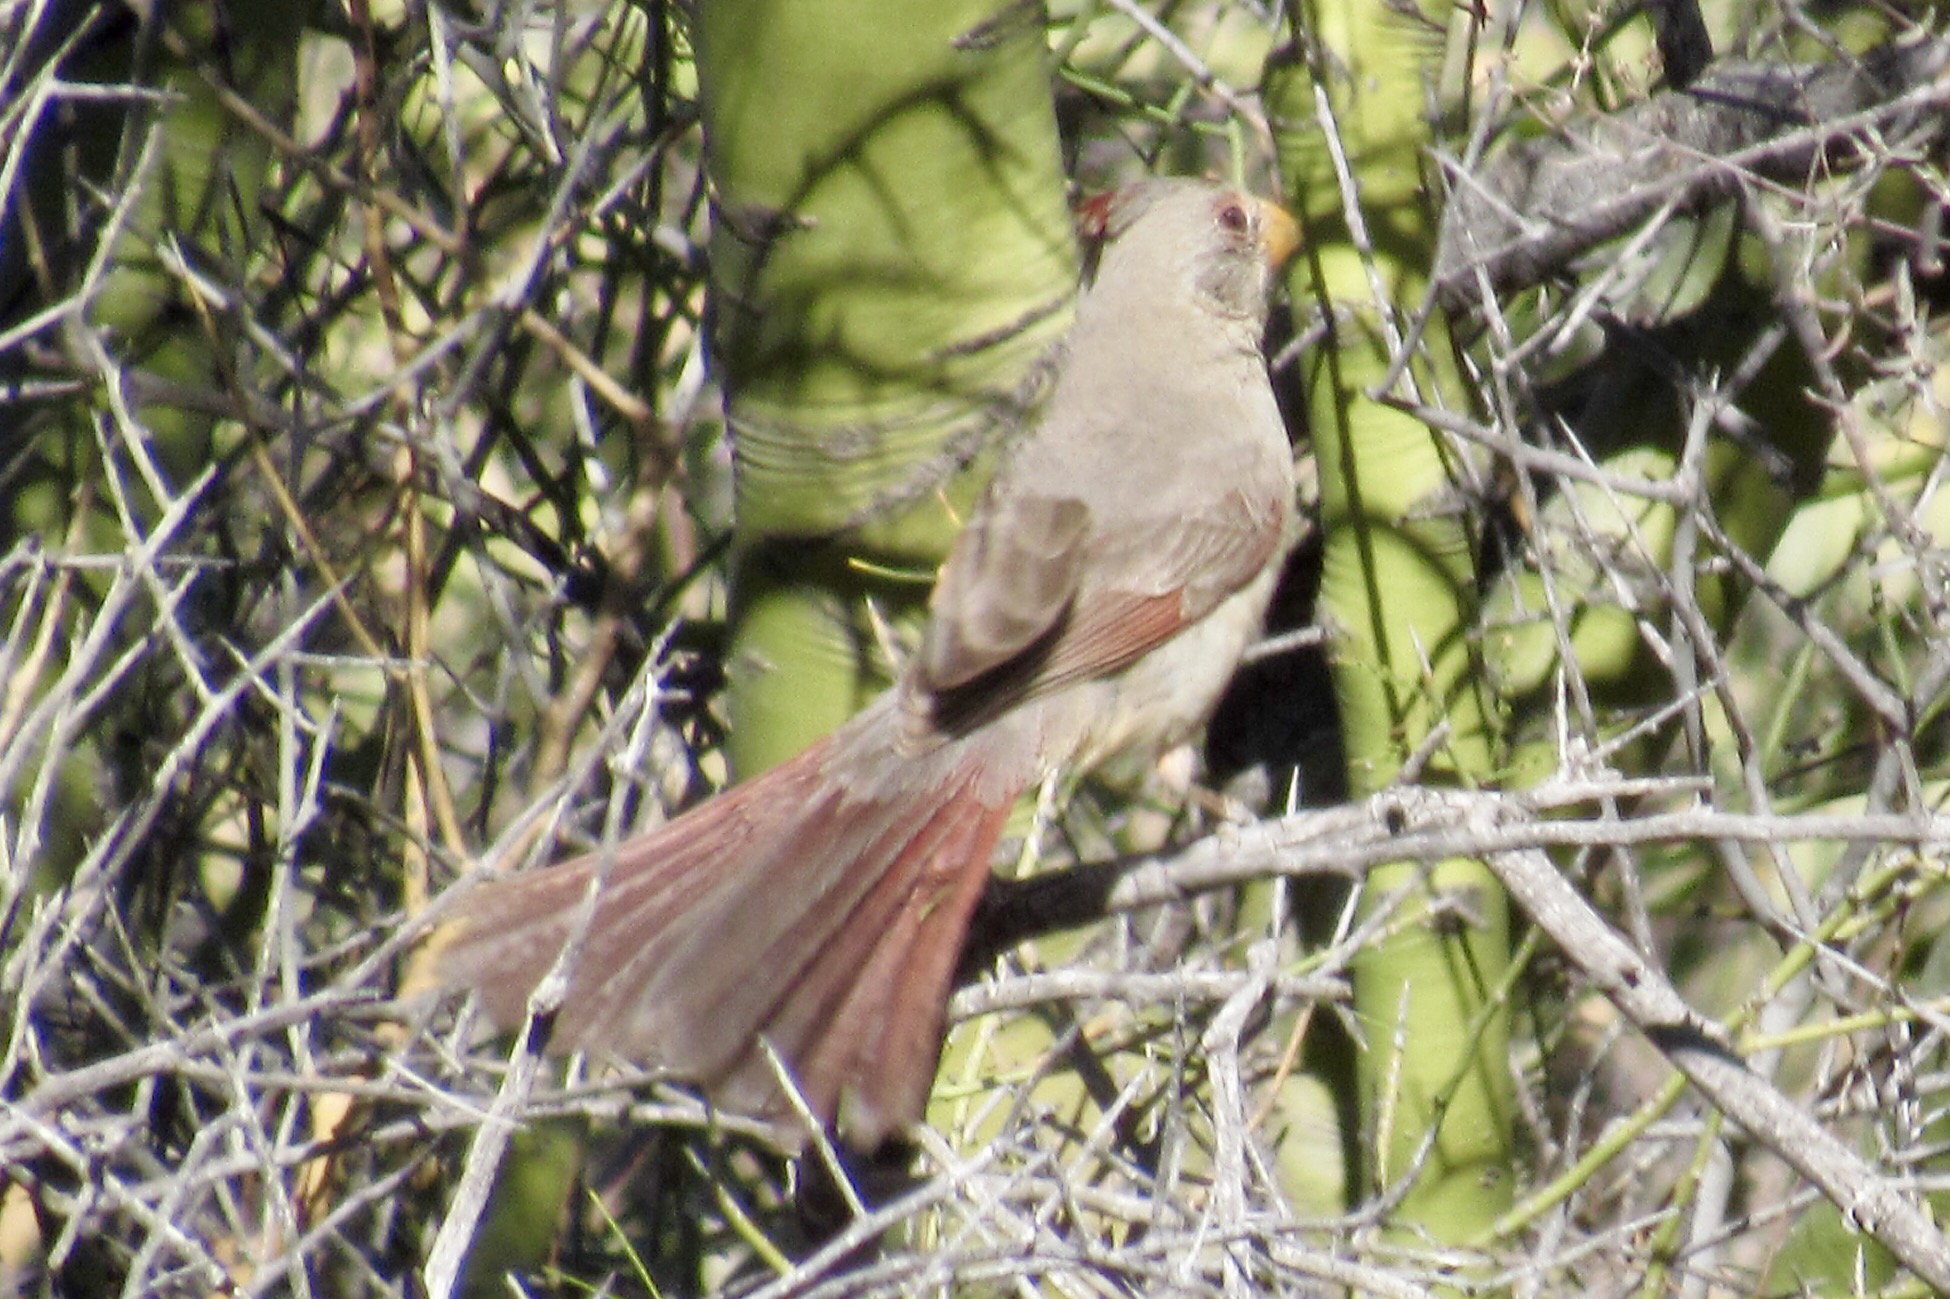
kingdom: Animalia
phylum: Chordata
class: Aves
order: Passeriformes
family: Cardinalidae
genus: Cardinalis
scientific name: Cardinalis sinuatus
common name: Pyrrhuloxia
